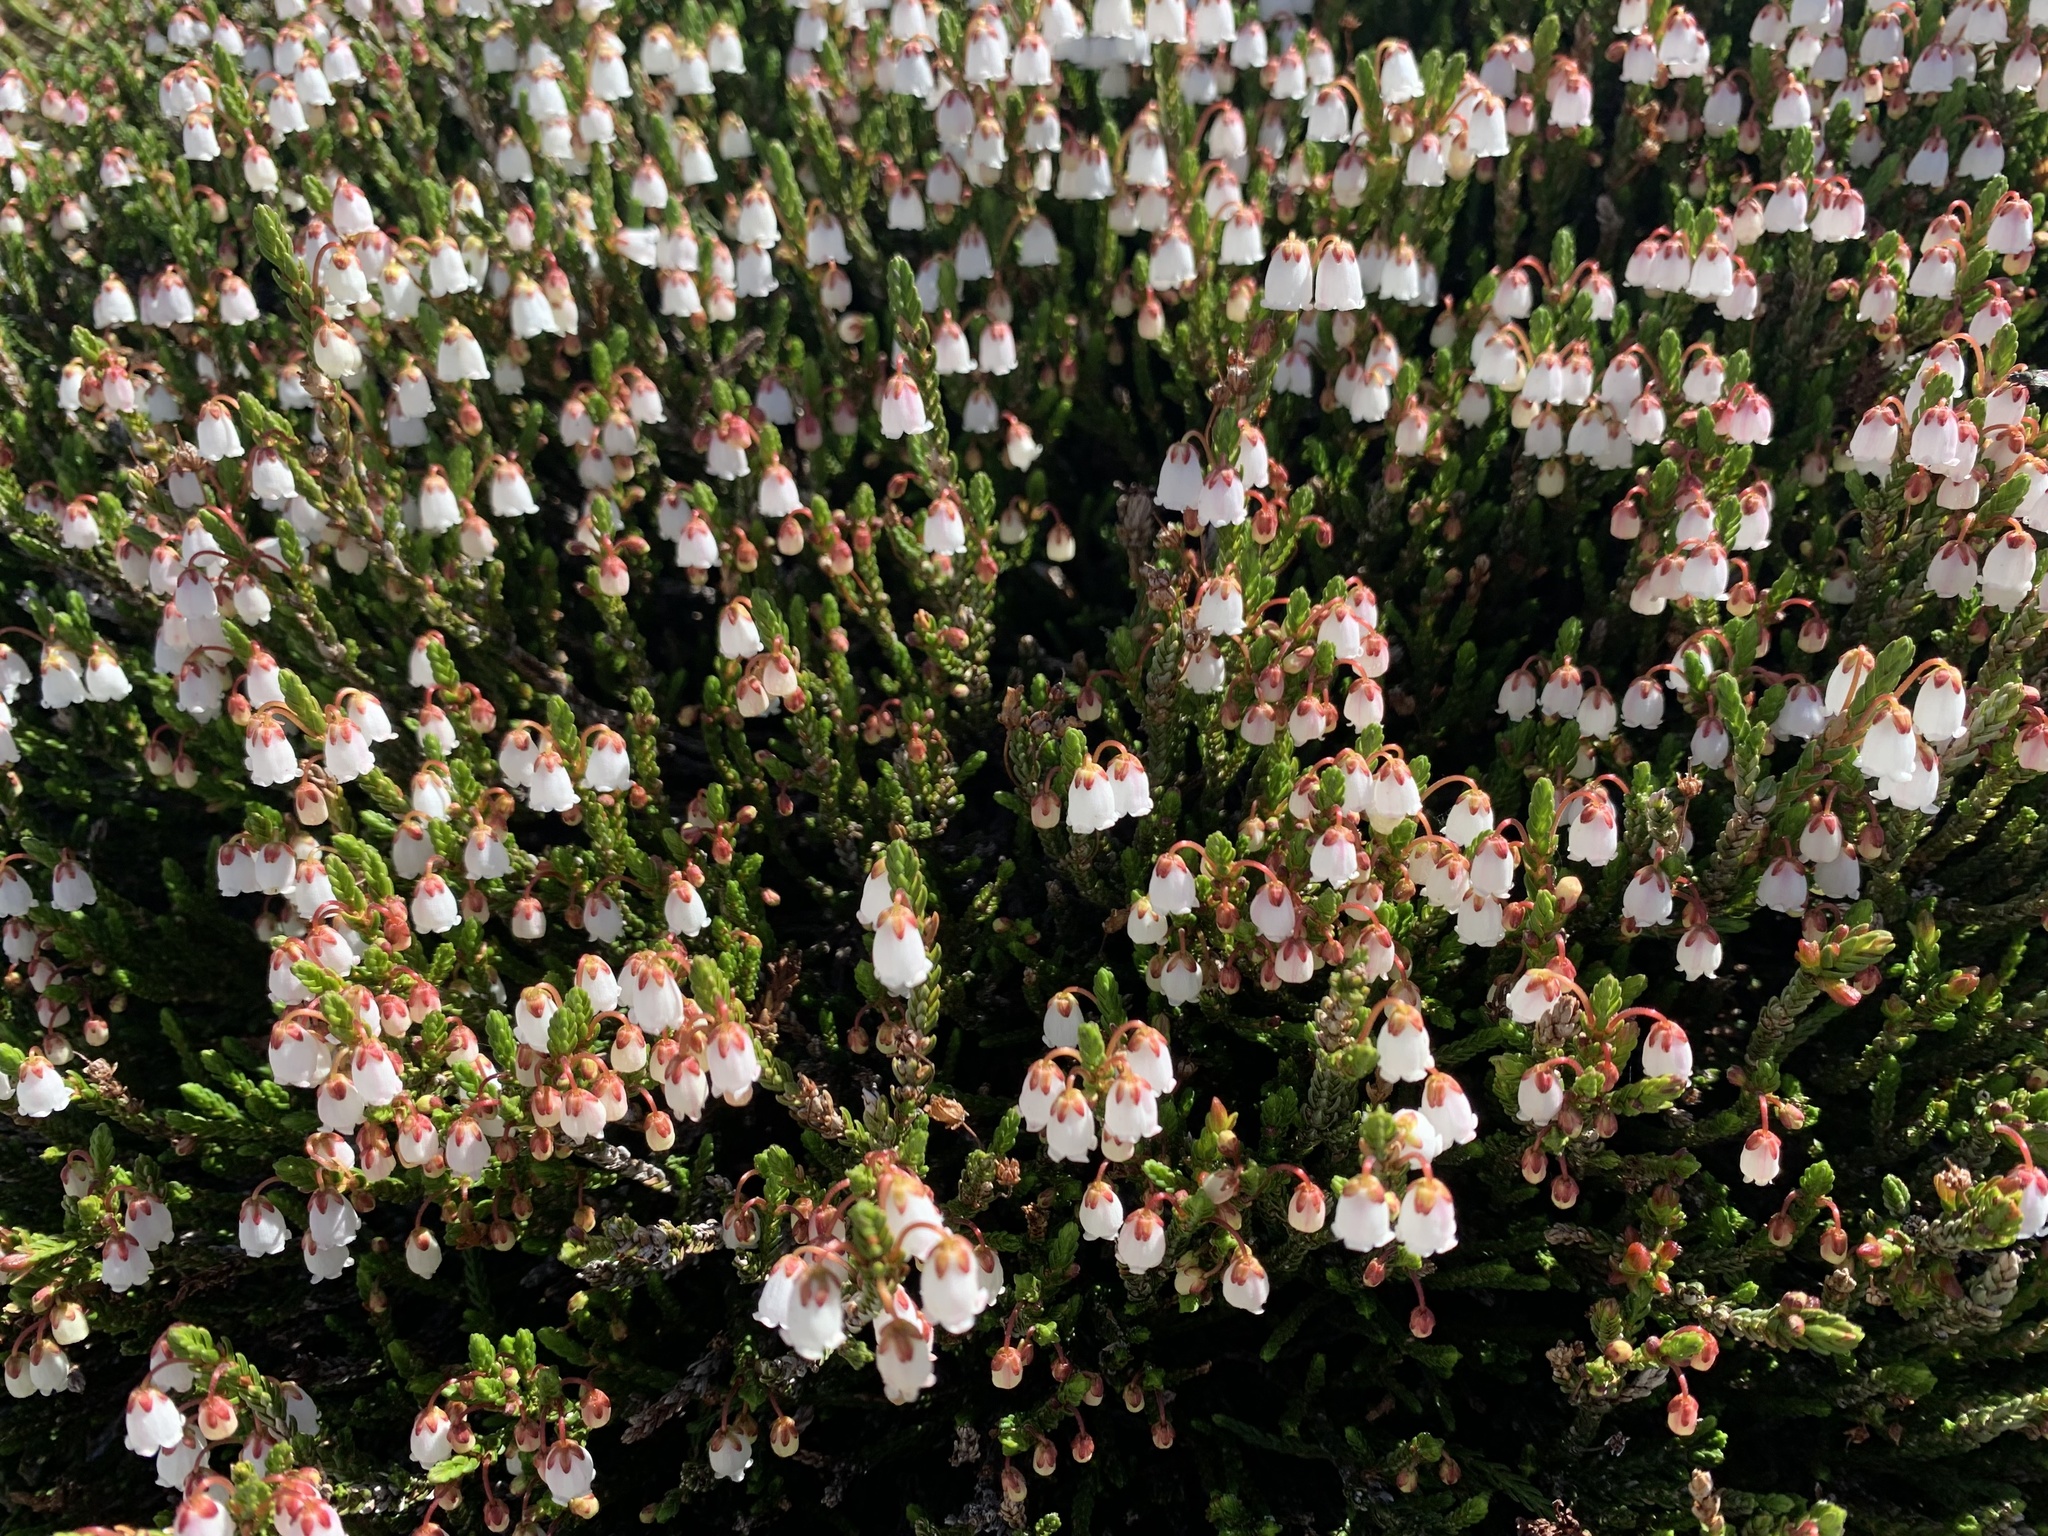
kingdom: Plantae
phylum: Tracheophyta
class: Magnoliopsida
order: Ericales
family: Ericaceae
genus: Cassiope
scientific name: Cassiope mertensiana
